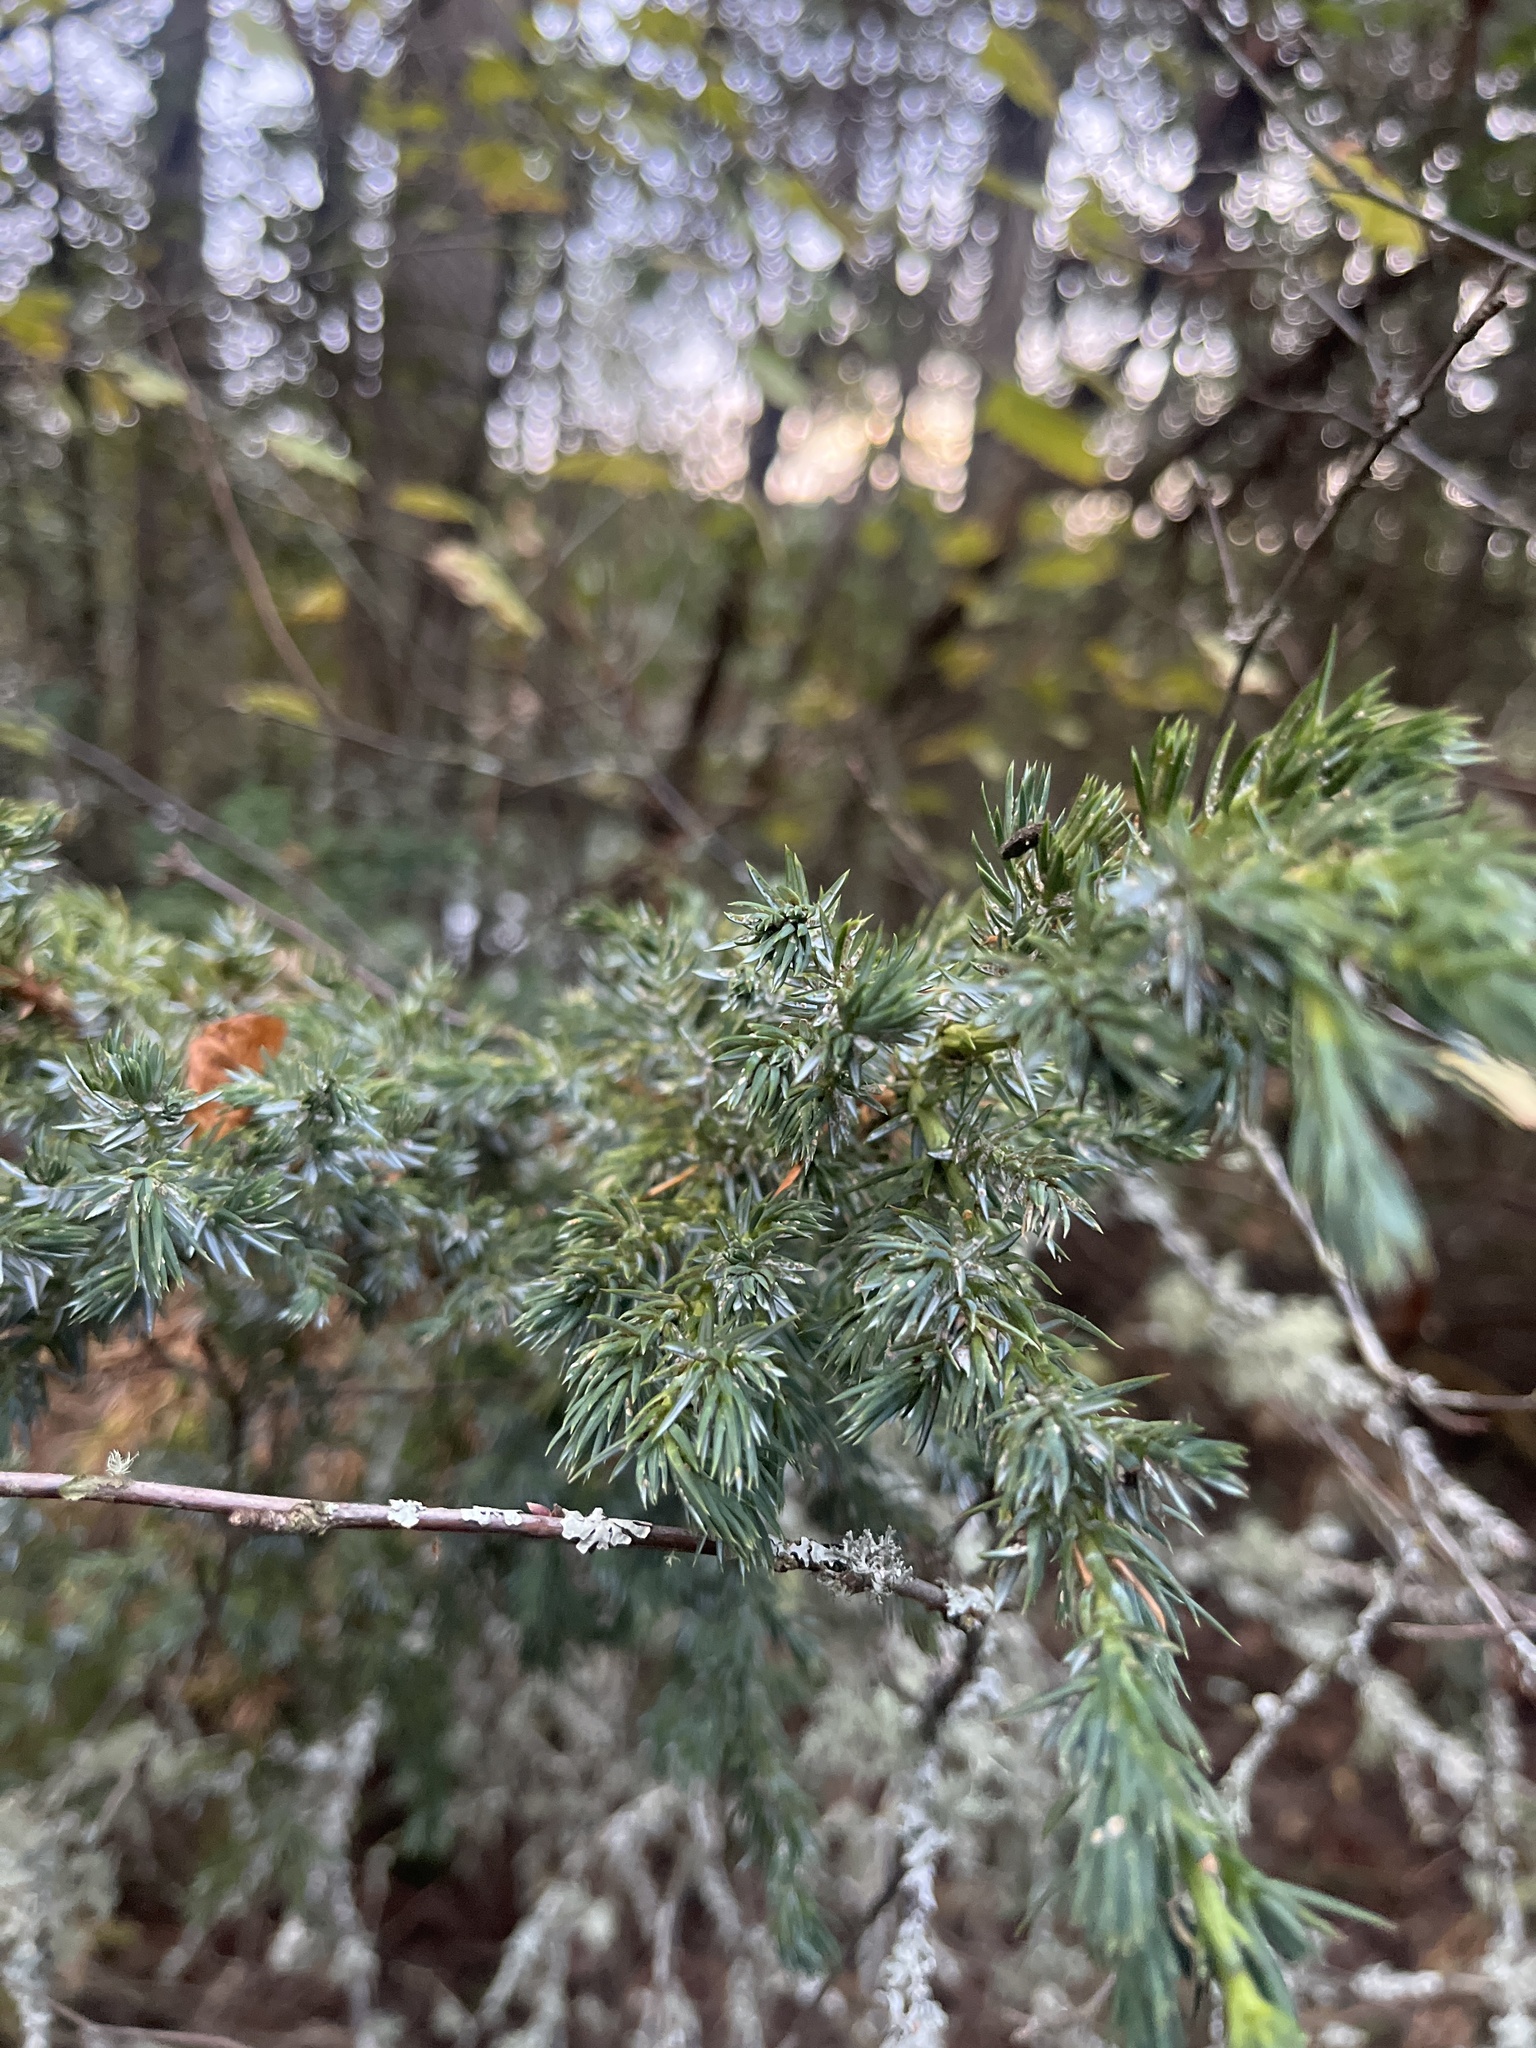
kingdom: Plantae
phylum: Tracheophyta
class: Pinopsida
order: Pinales
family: Cupressaceae
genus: Juniperus
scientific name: Juniperus scopulorum
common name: Rocky mountain juniper
